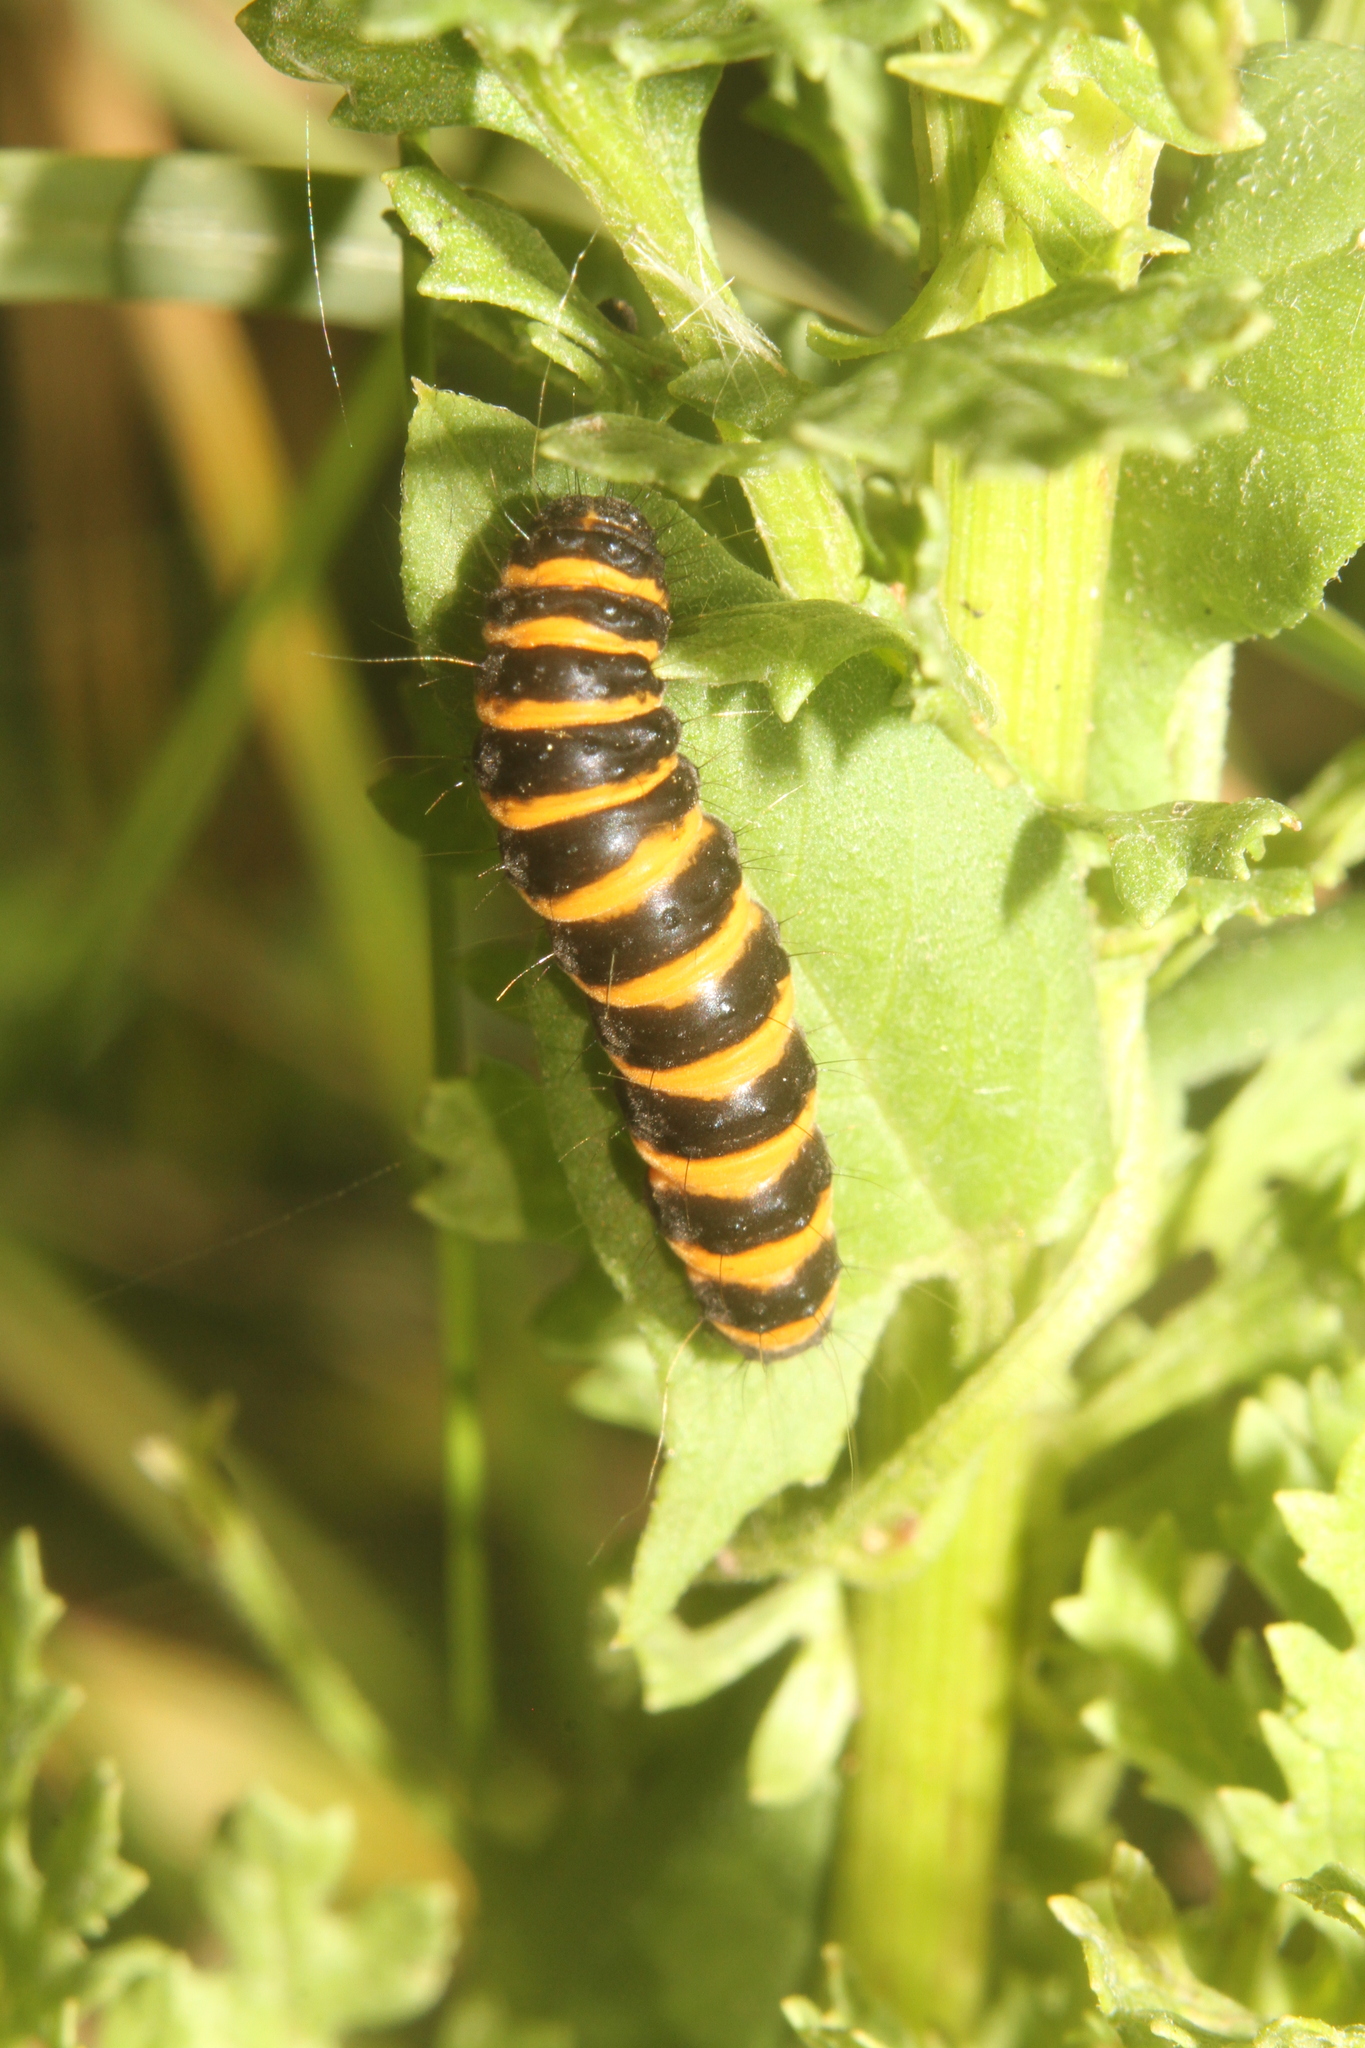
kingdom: Animalia
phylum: Arthropoda
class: Insecta
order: Lepidoptera
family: Erebidae
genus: Tyria
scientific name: Tyria jacobaeae
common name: Cinnabar
